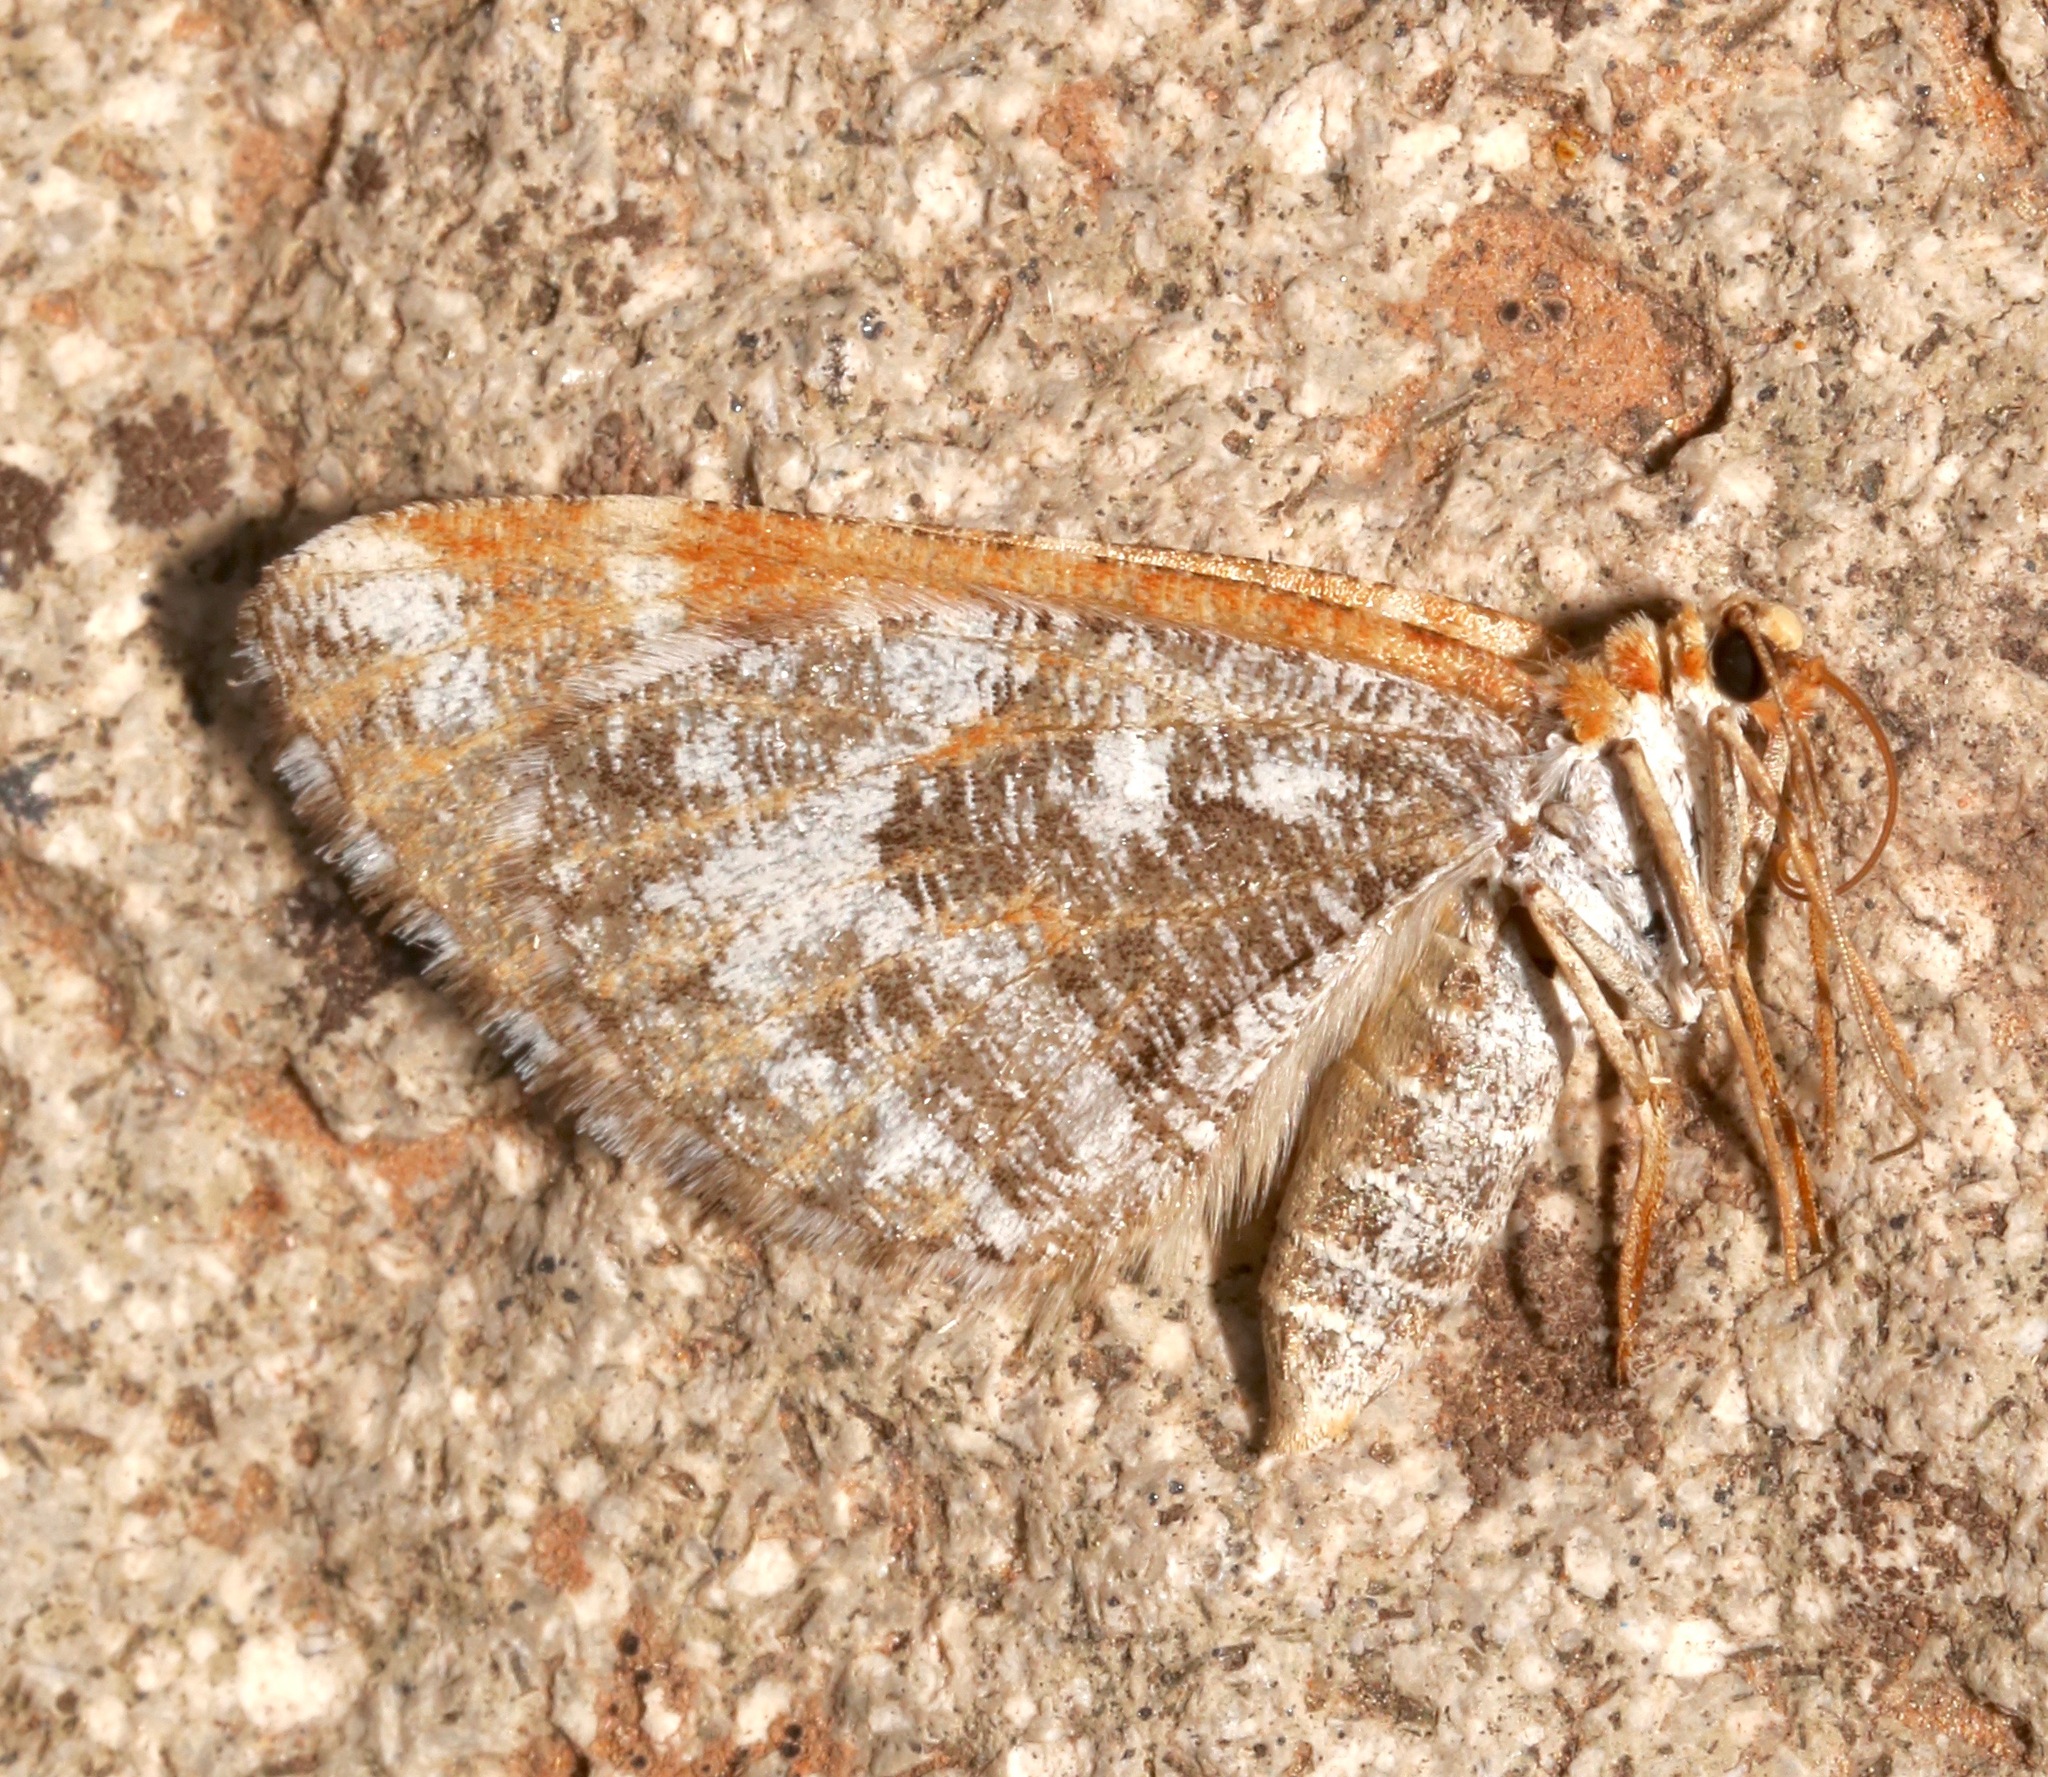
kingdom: Animalia
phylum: Arthropoda
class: Insecta
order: Lepidoptera
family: Geometridae
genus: Stamnodes
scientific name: Stamnodes marmorata
